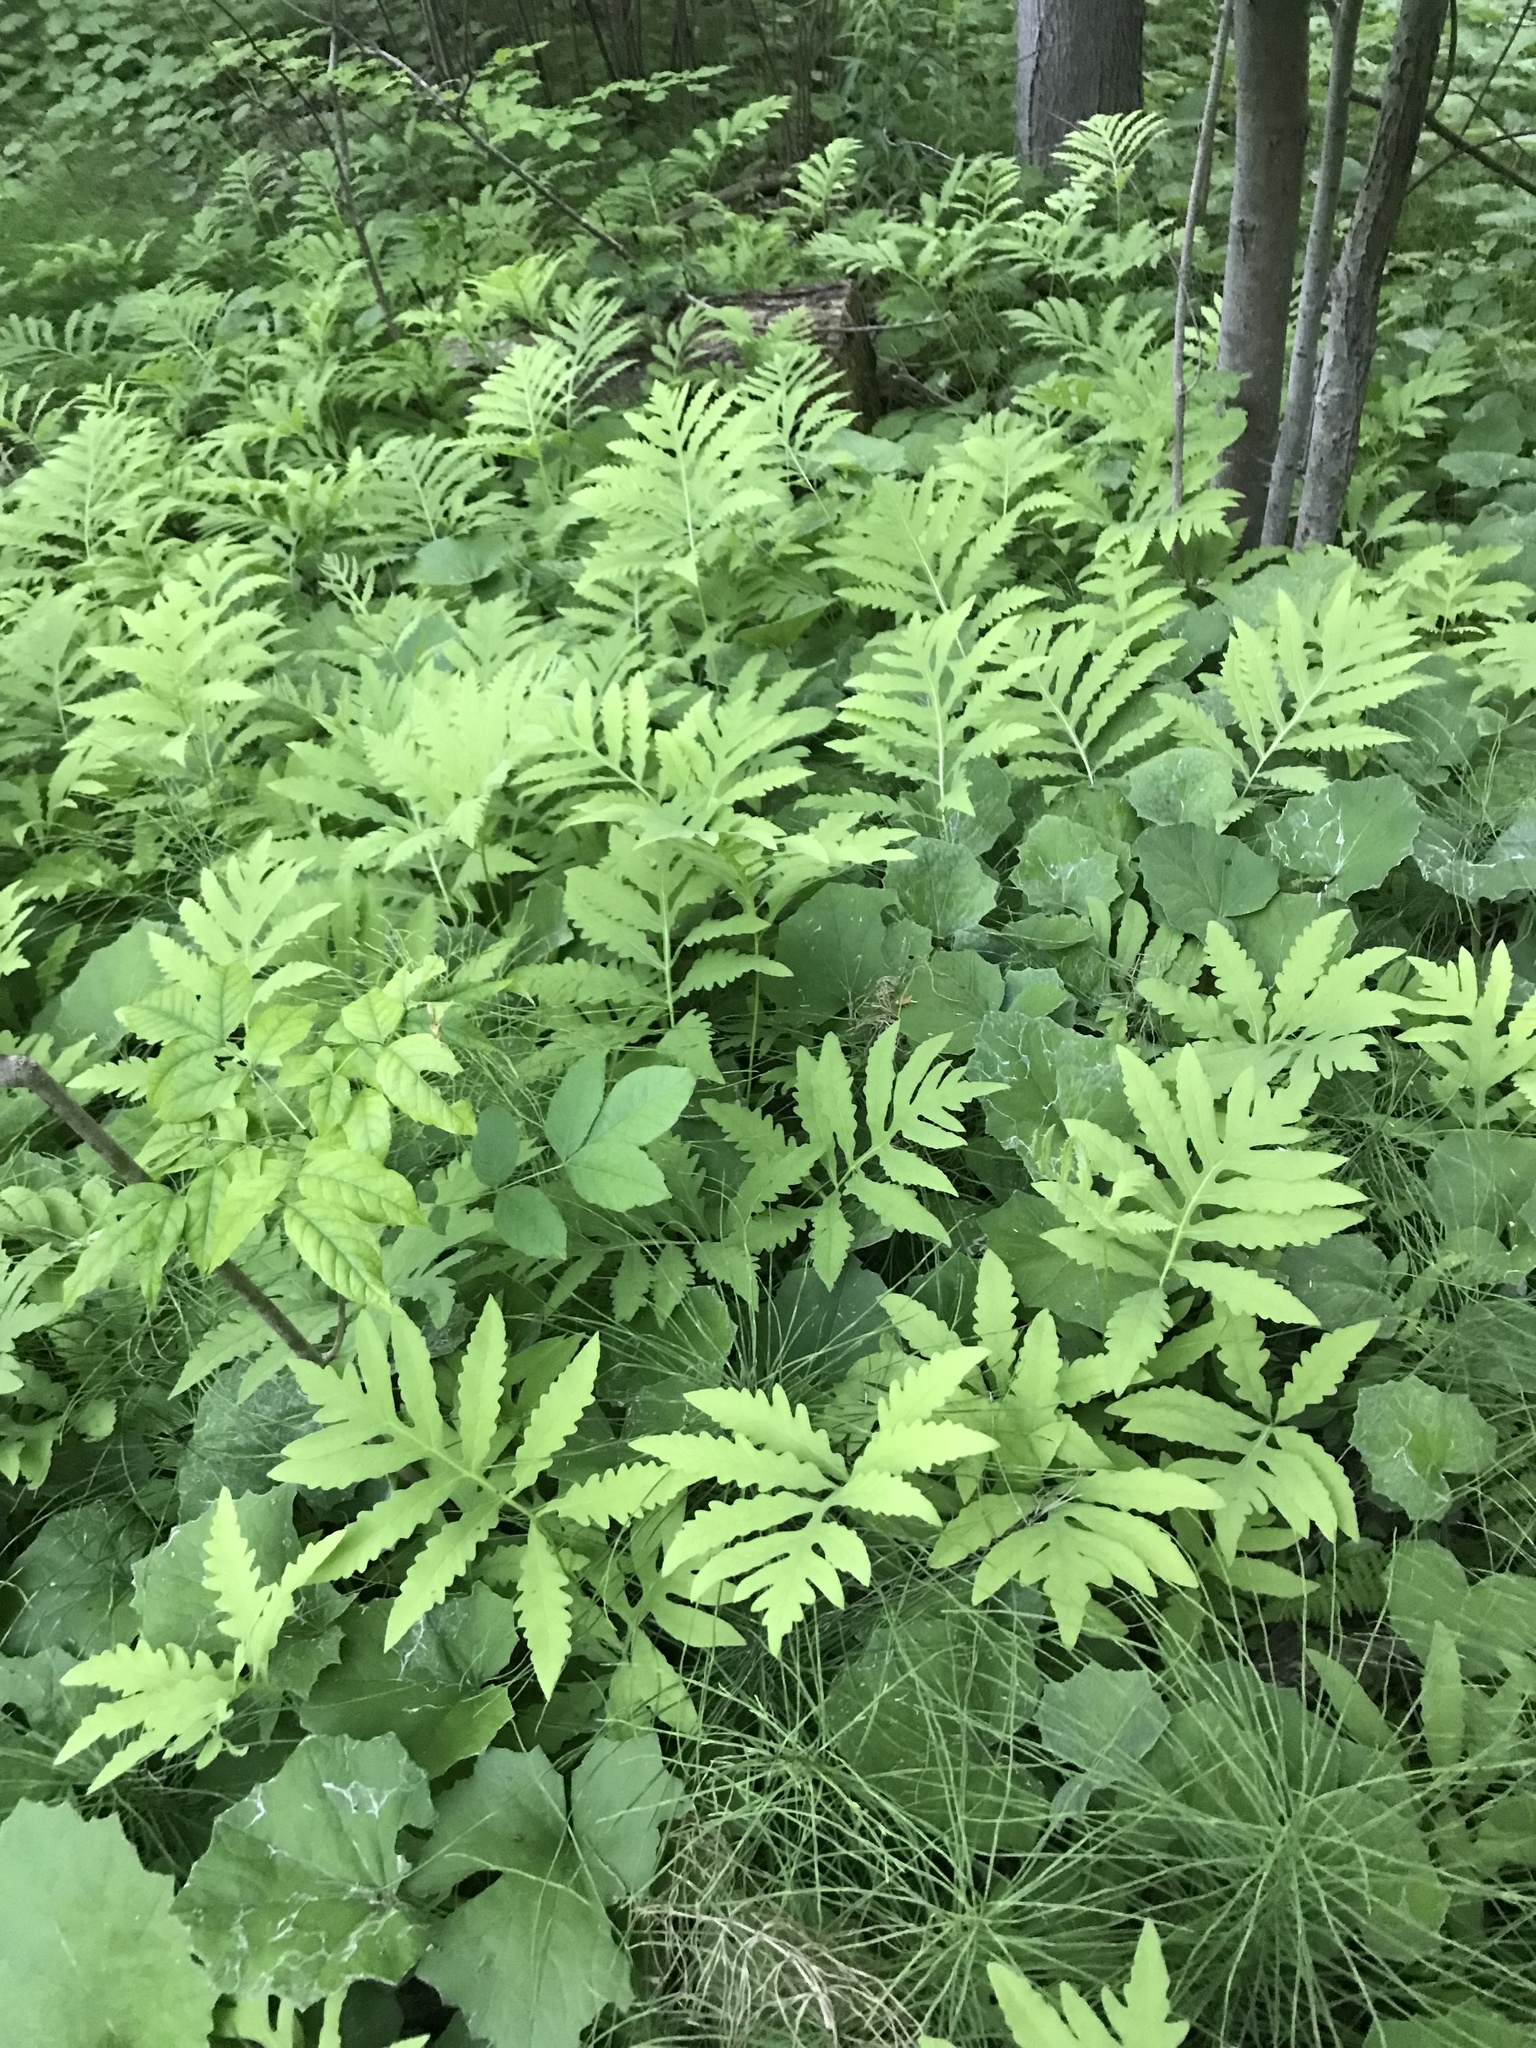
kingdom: Plantae
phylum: Tracheophyta
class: Polypodiopsida
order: Polypodiales
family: Onocleaceae
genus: Onoclea
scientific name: Onoclea sensibilis
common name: Sensitive fern
